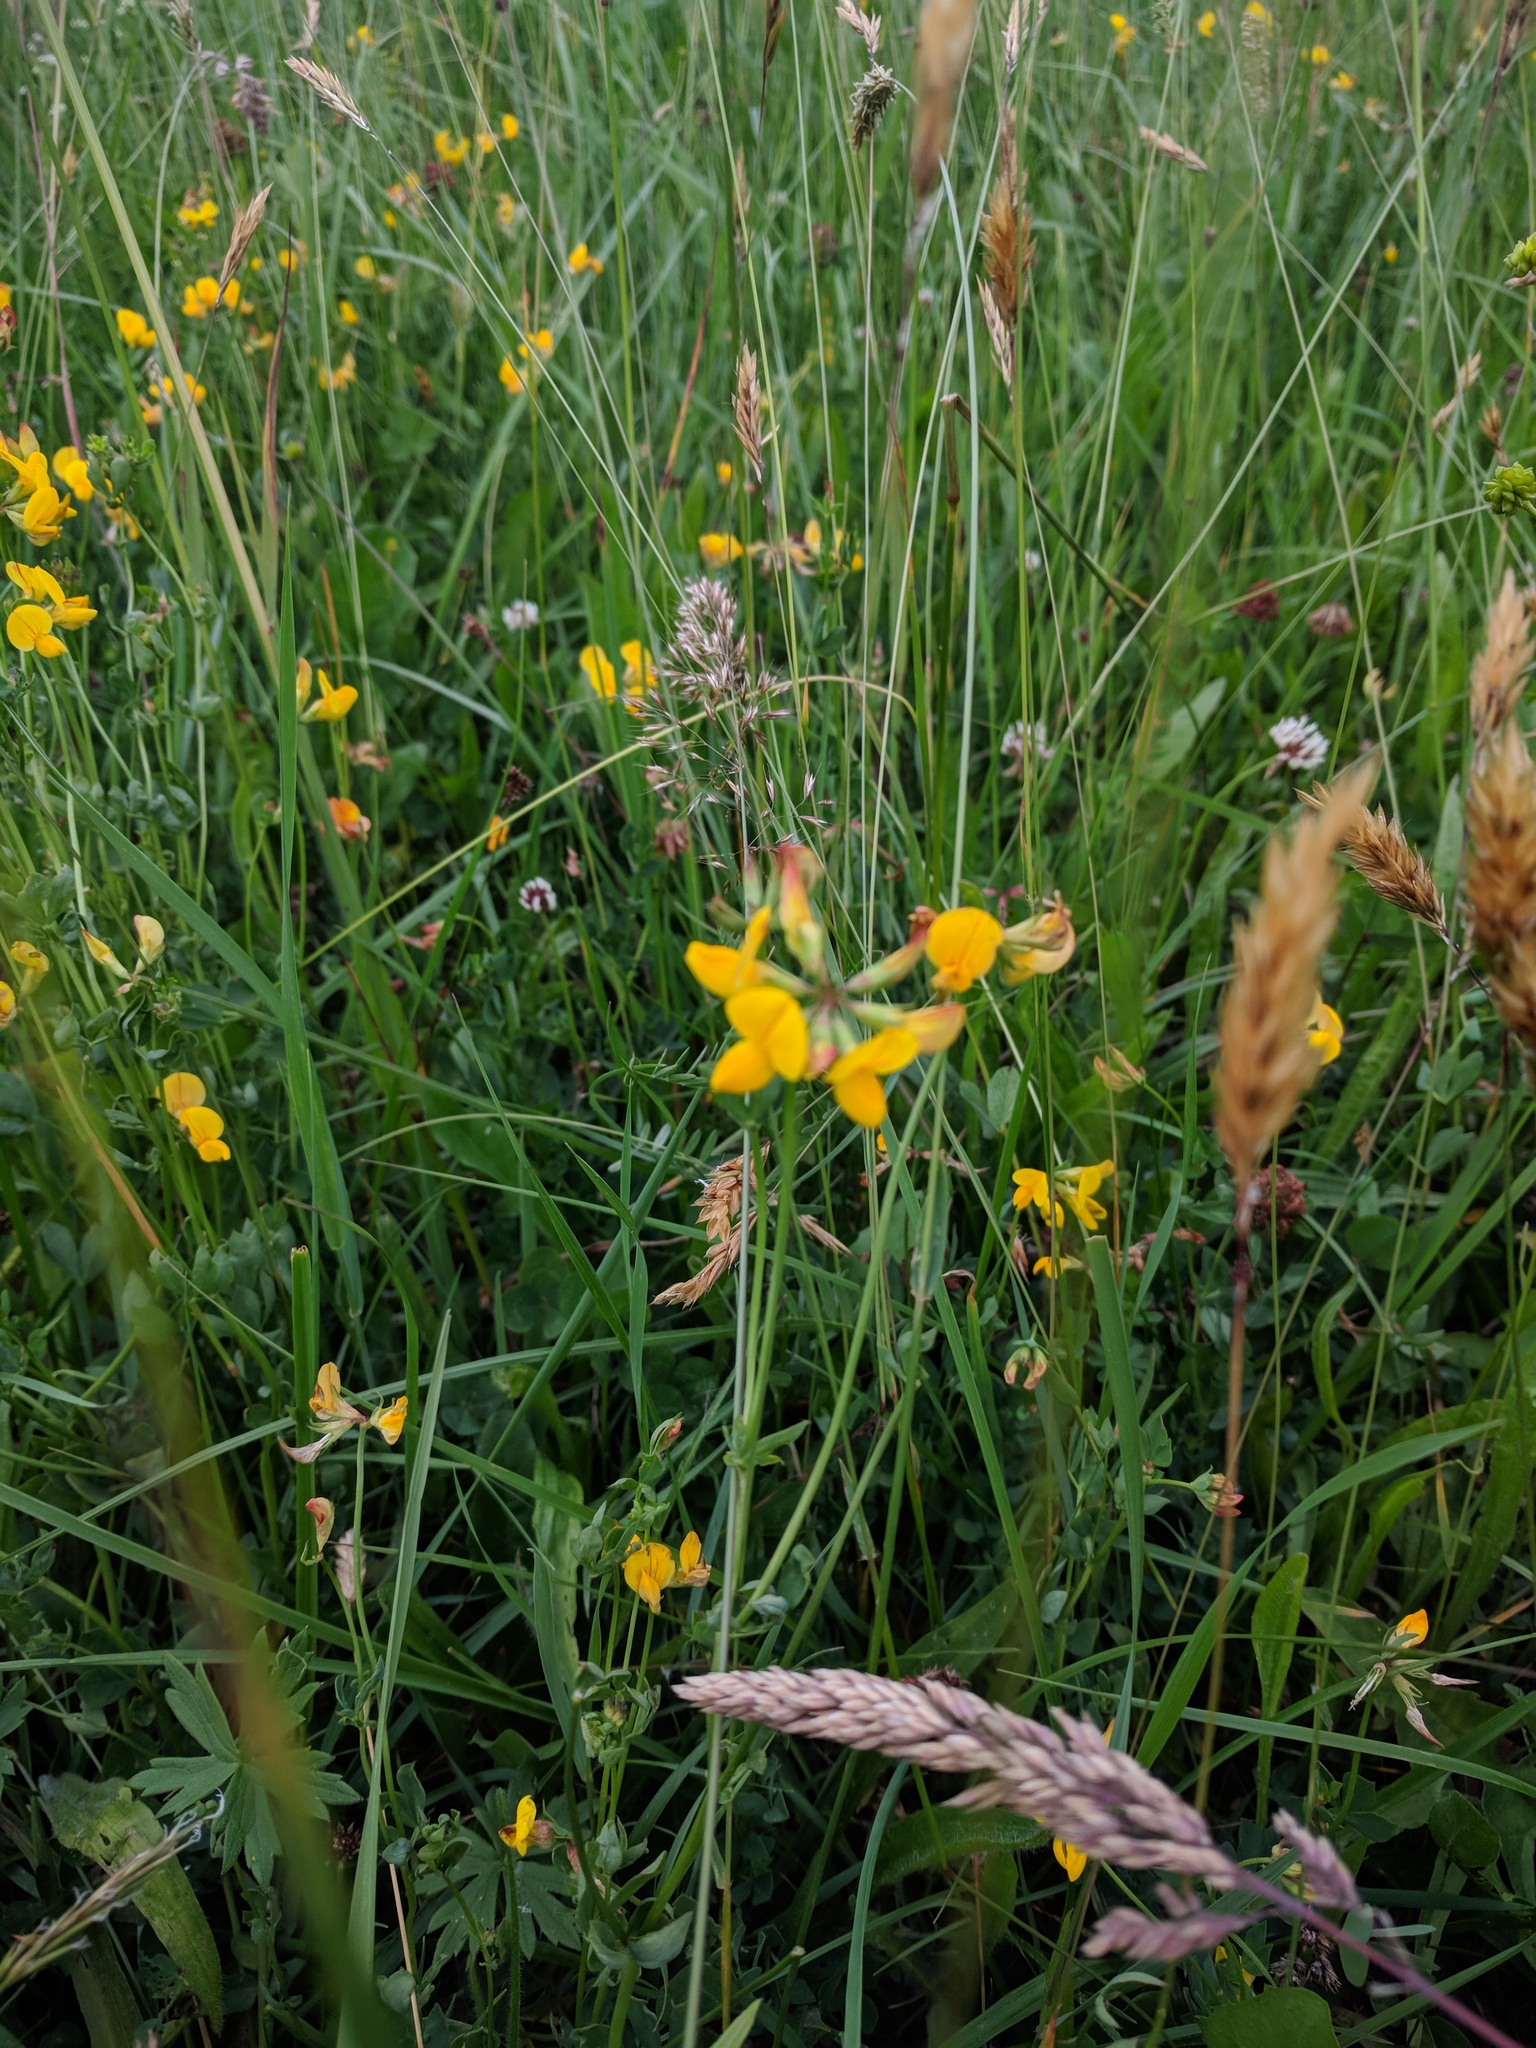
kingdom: Plantae
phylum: Tracheophyta
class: Magnoliopsida
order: Fabales
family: Fabaceae
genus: Lotus
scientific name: Lotus corniculatus
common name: Common bird's-foot-trefoil
